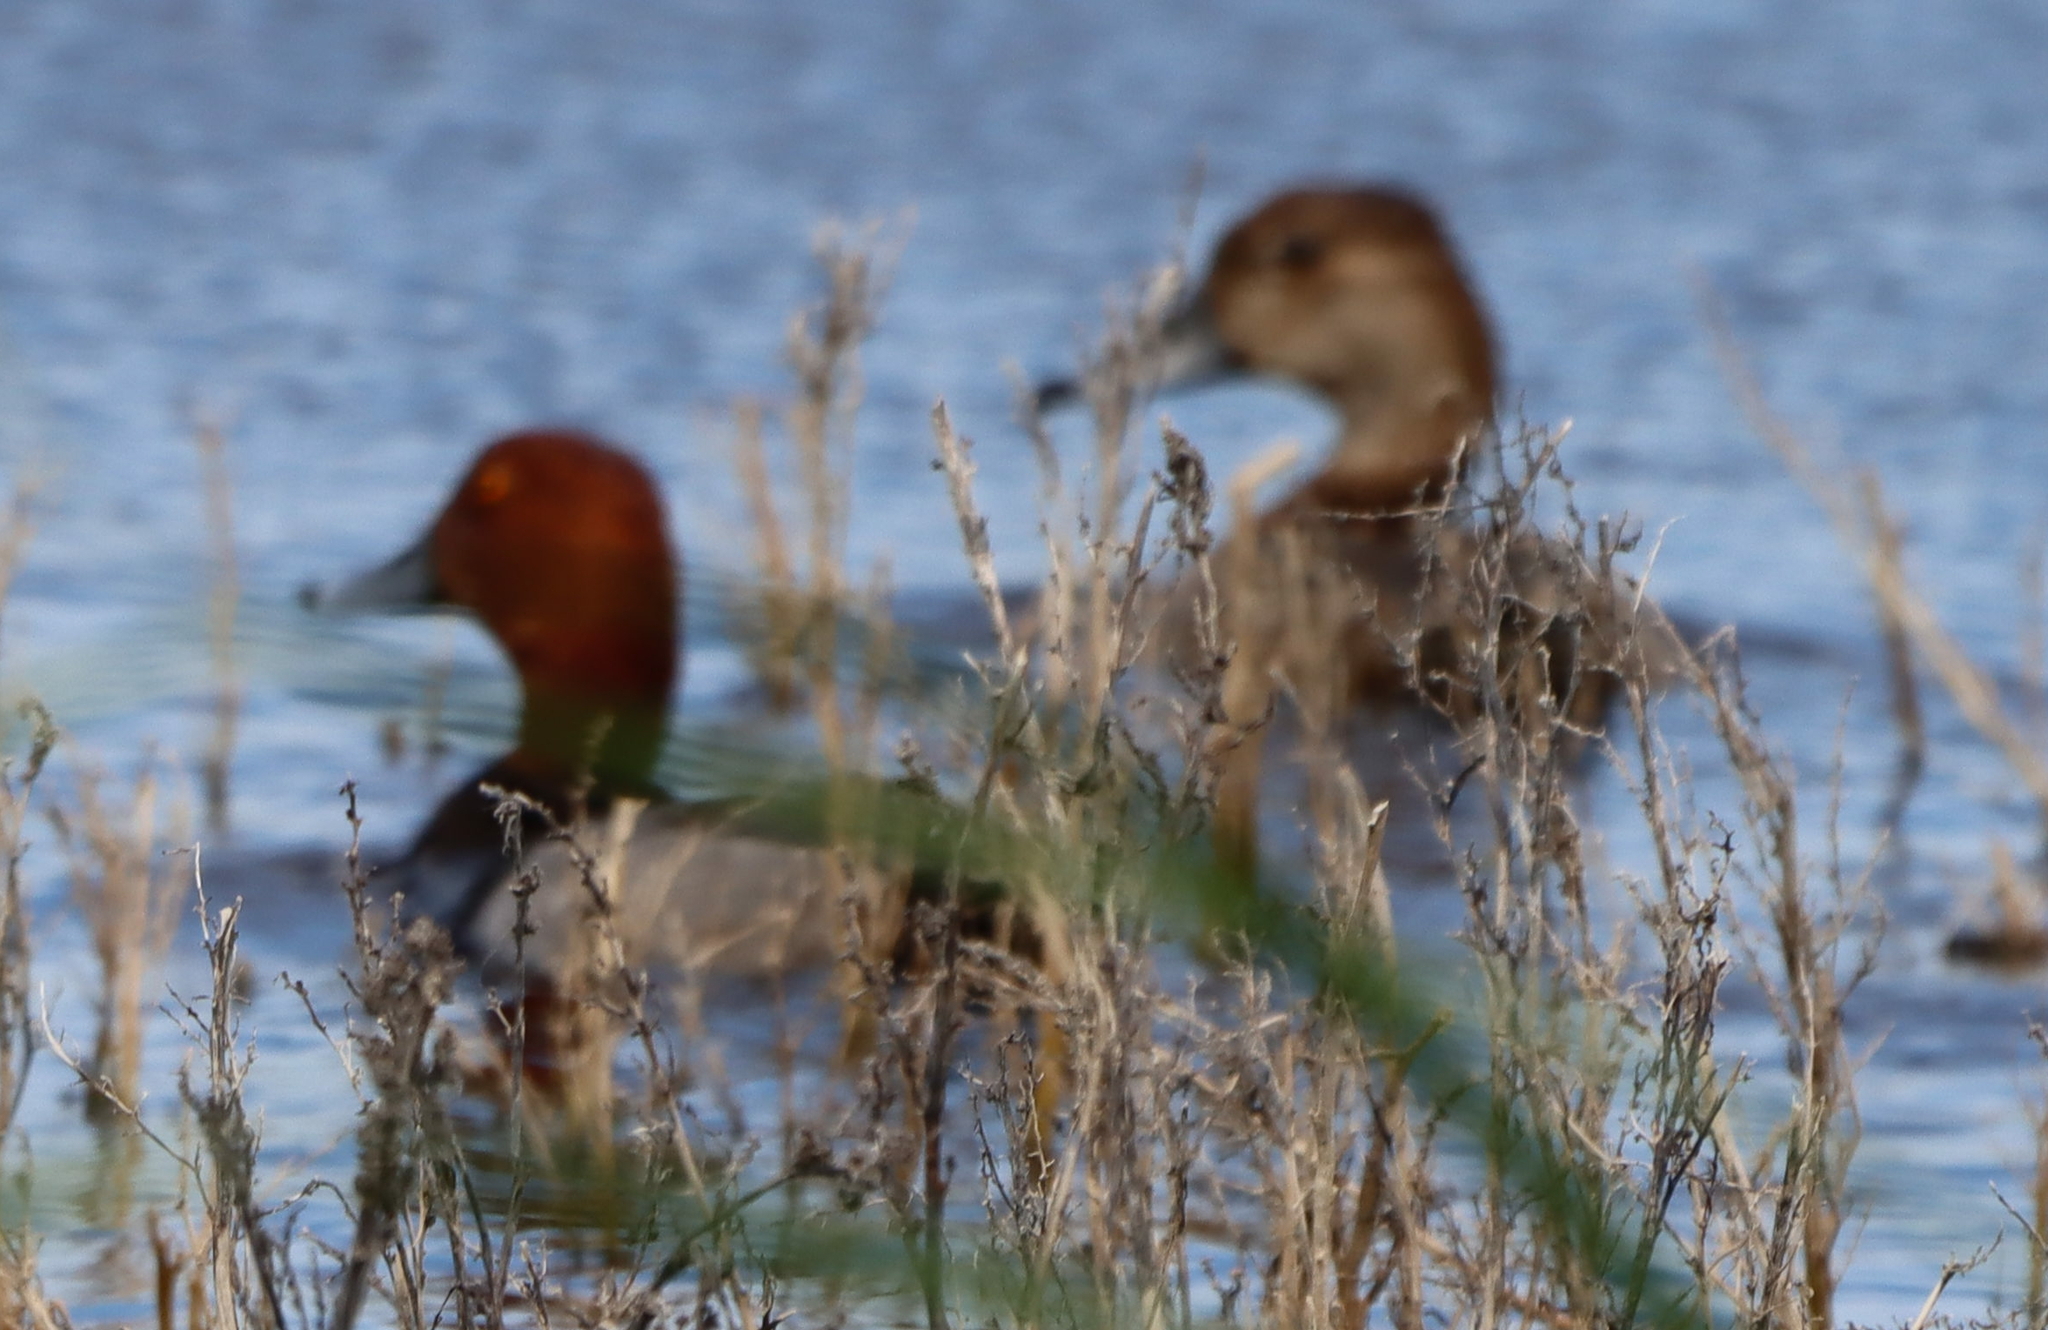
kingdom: Animalia
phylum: Chordata
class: Aves
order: Anseriformes
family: Anatidae
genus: Aythya
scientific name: Aythya americana
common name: Redhead
